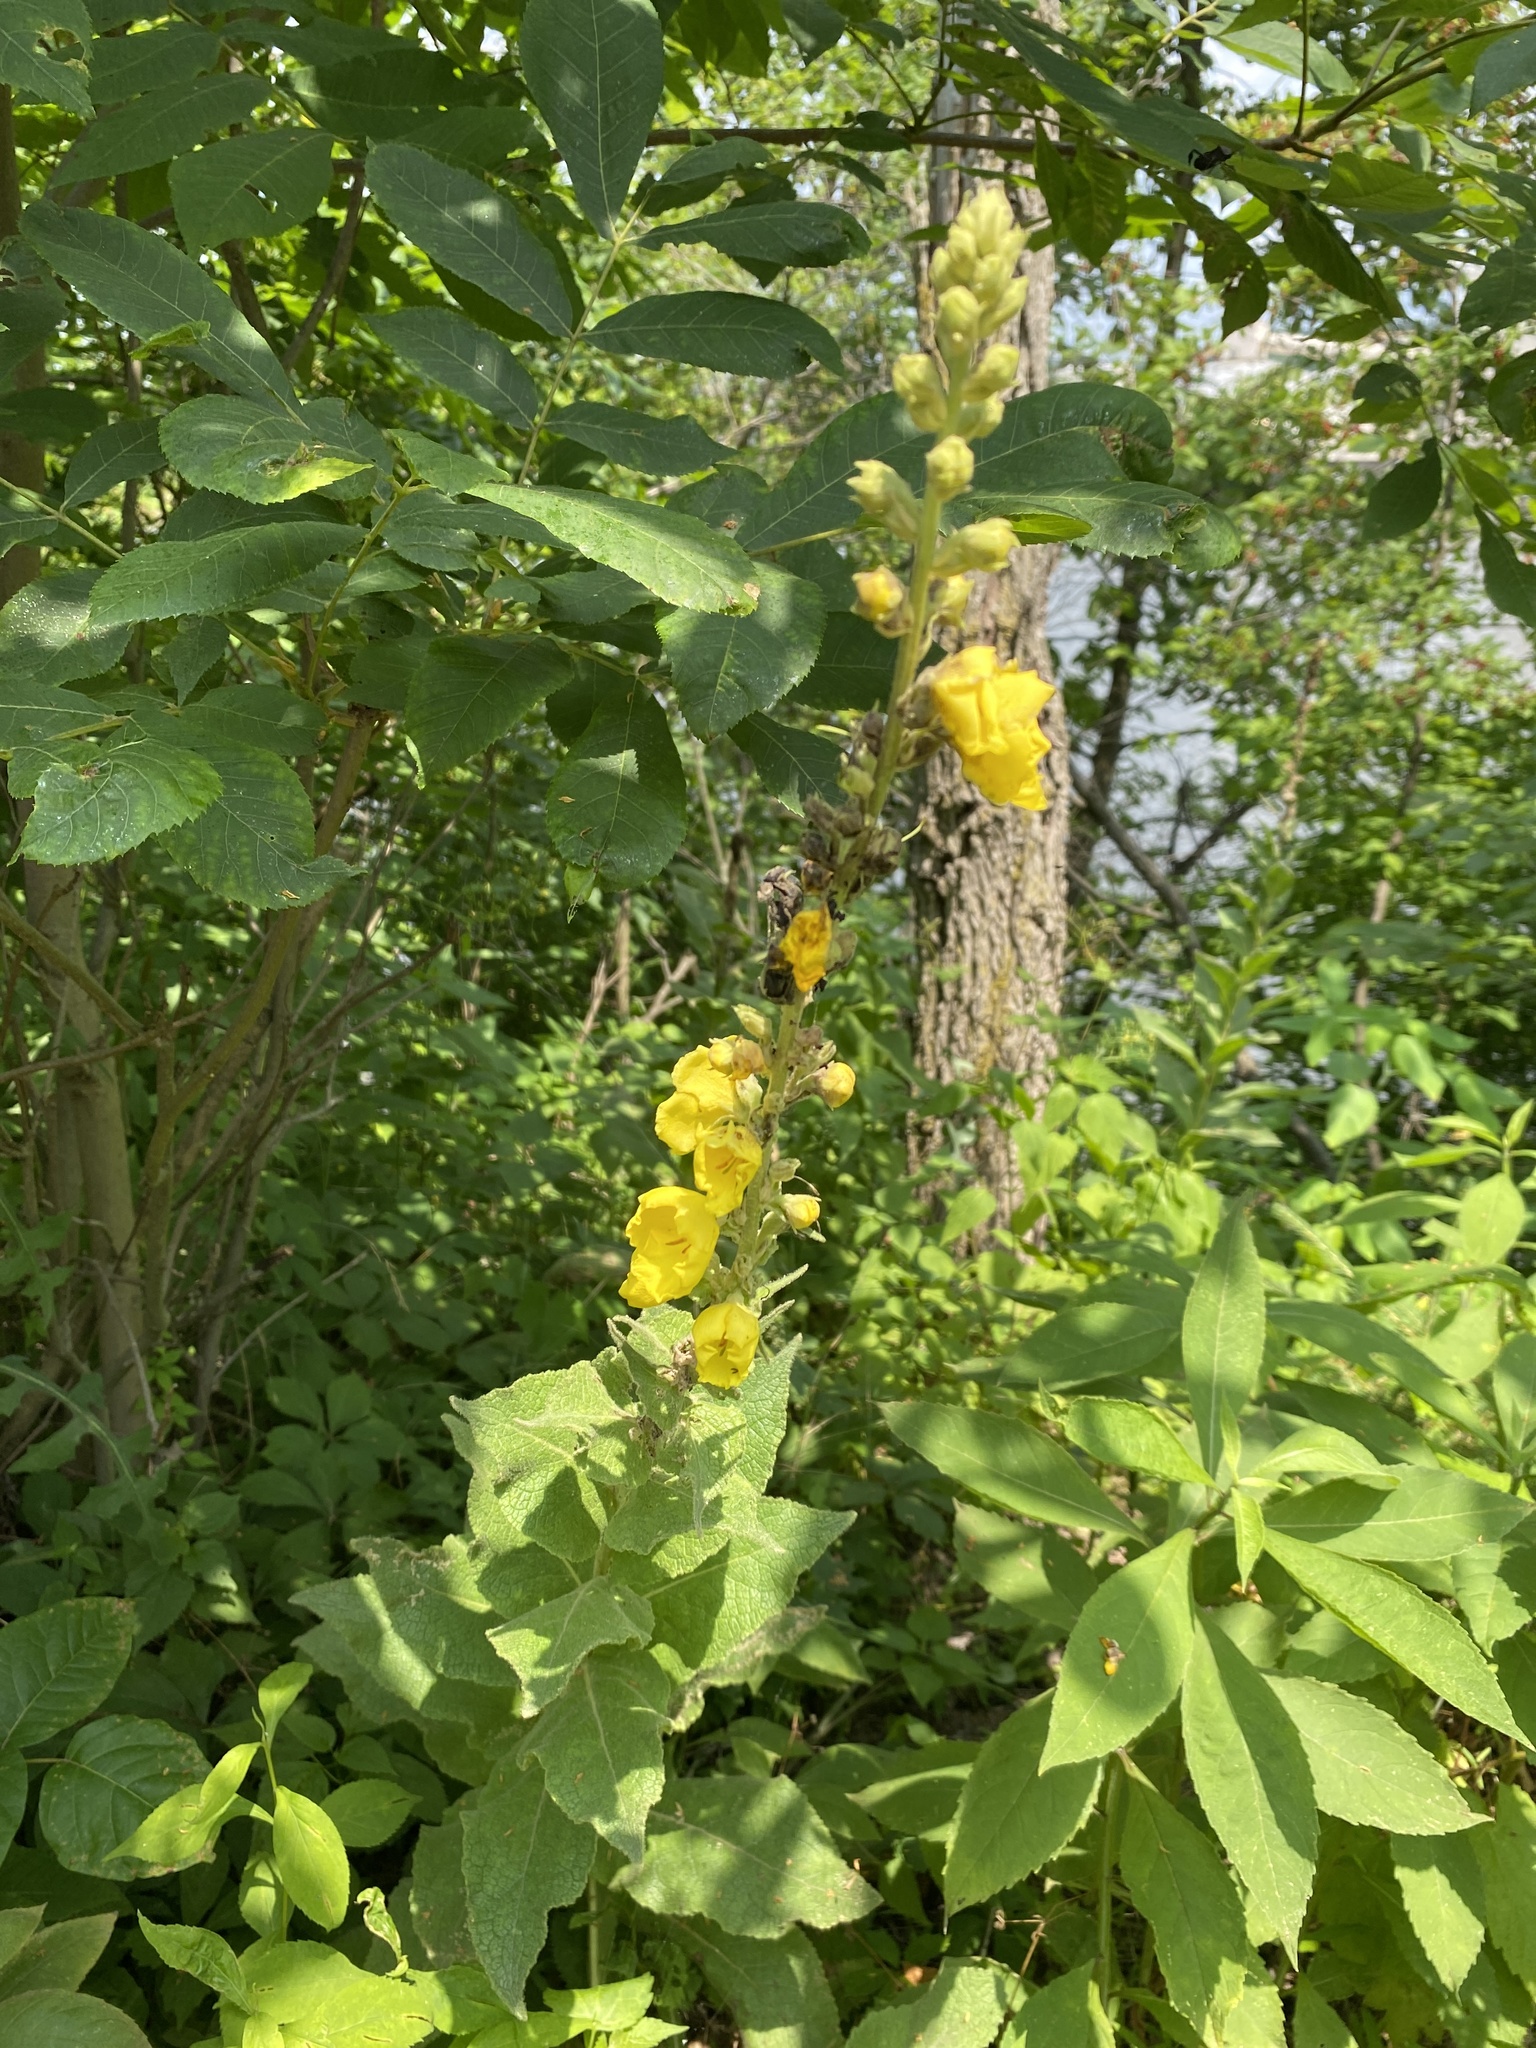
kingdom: Plantae
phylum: Tracheophyta
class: Magnoliopsida
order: Lamiales
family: Scrophulariaceae
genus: Verbascum
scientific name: Verbascum thapsus
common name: Common mullein
